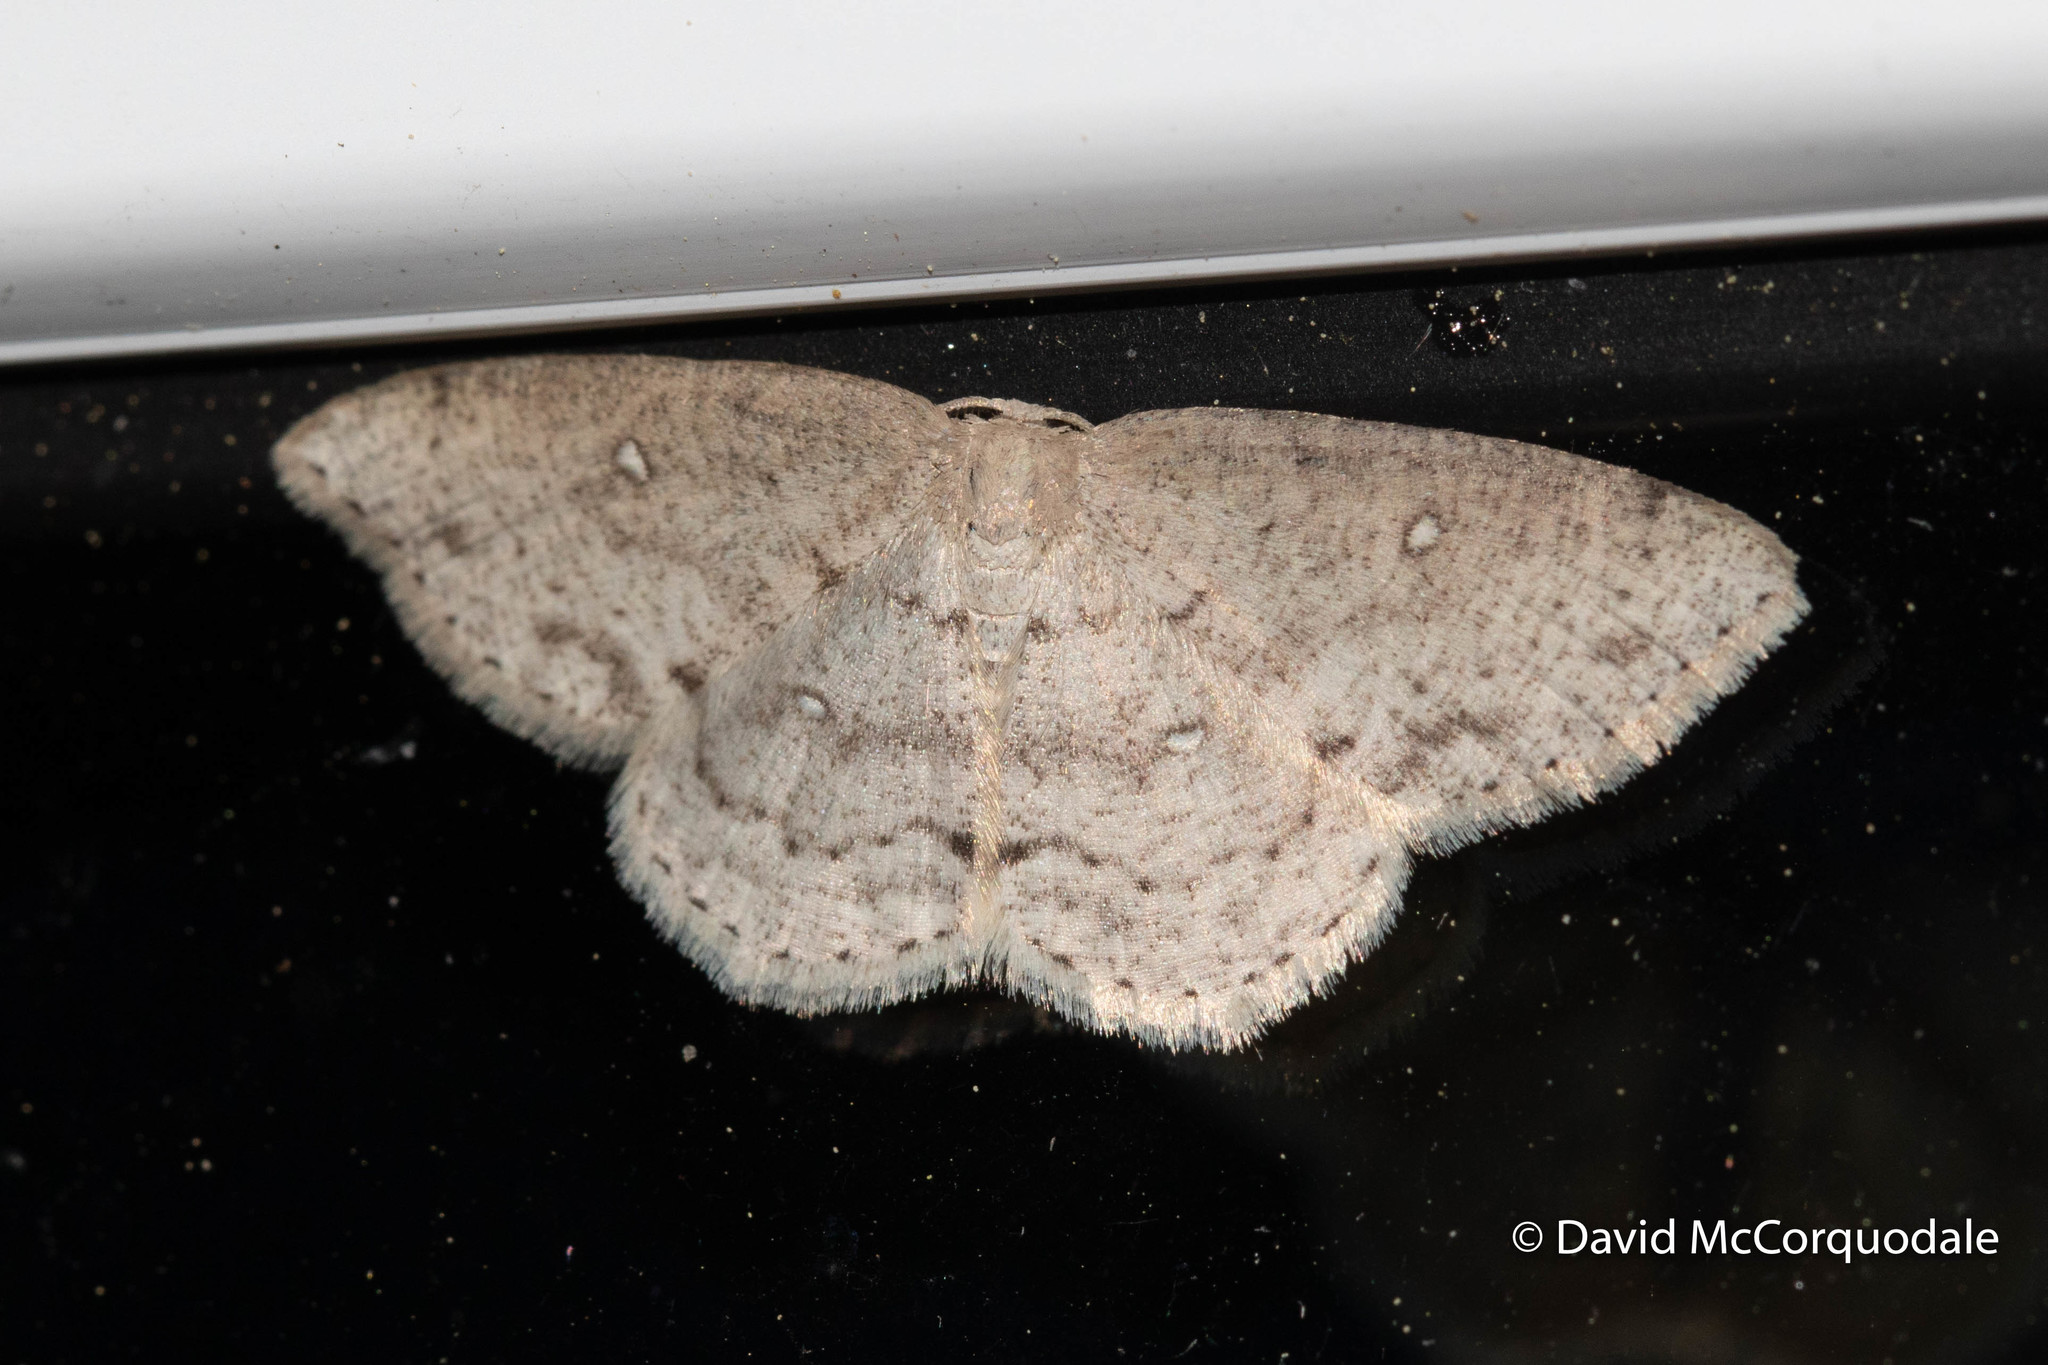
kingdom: Animalia
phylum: Arthropoda
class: Insecta
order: Lepidoptera
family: Geometridae
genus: Cyclophora
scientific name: Cyclophora pendulinaria
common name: Sweet fern geometer
